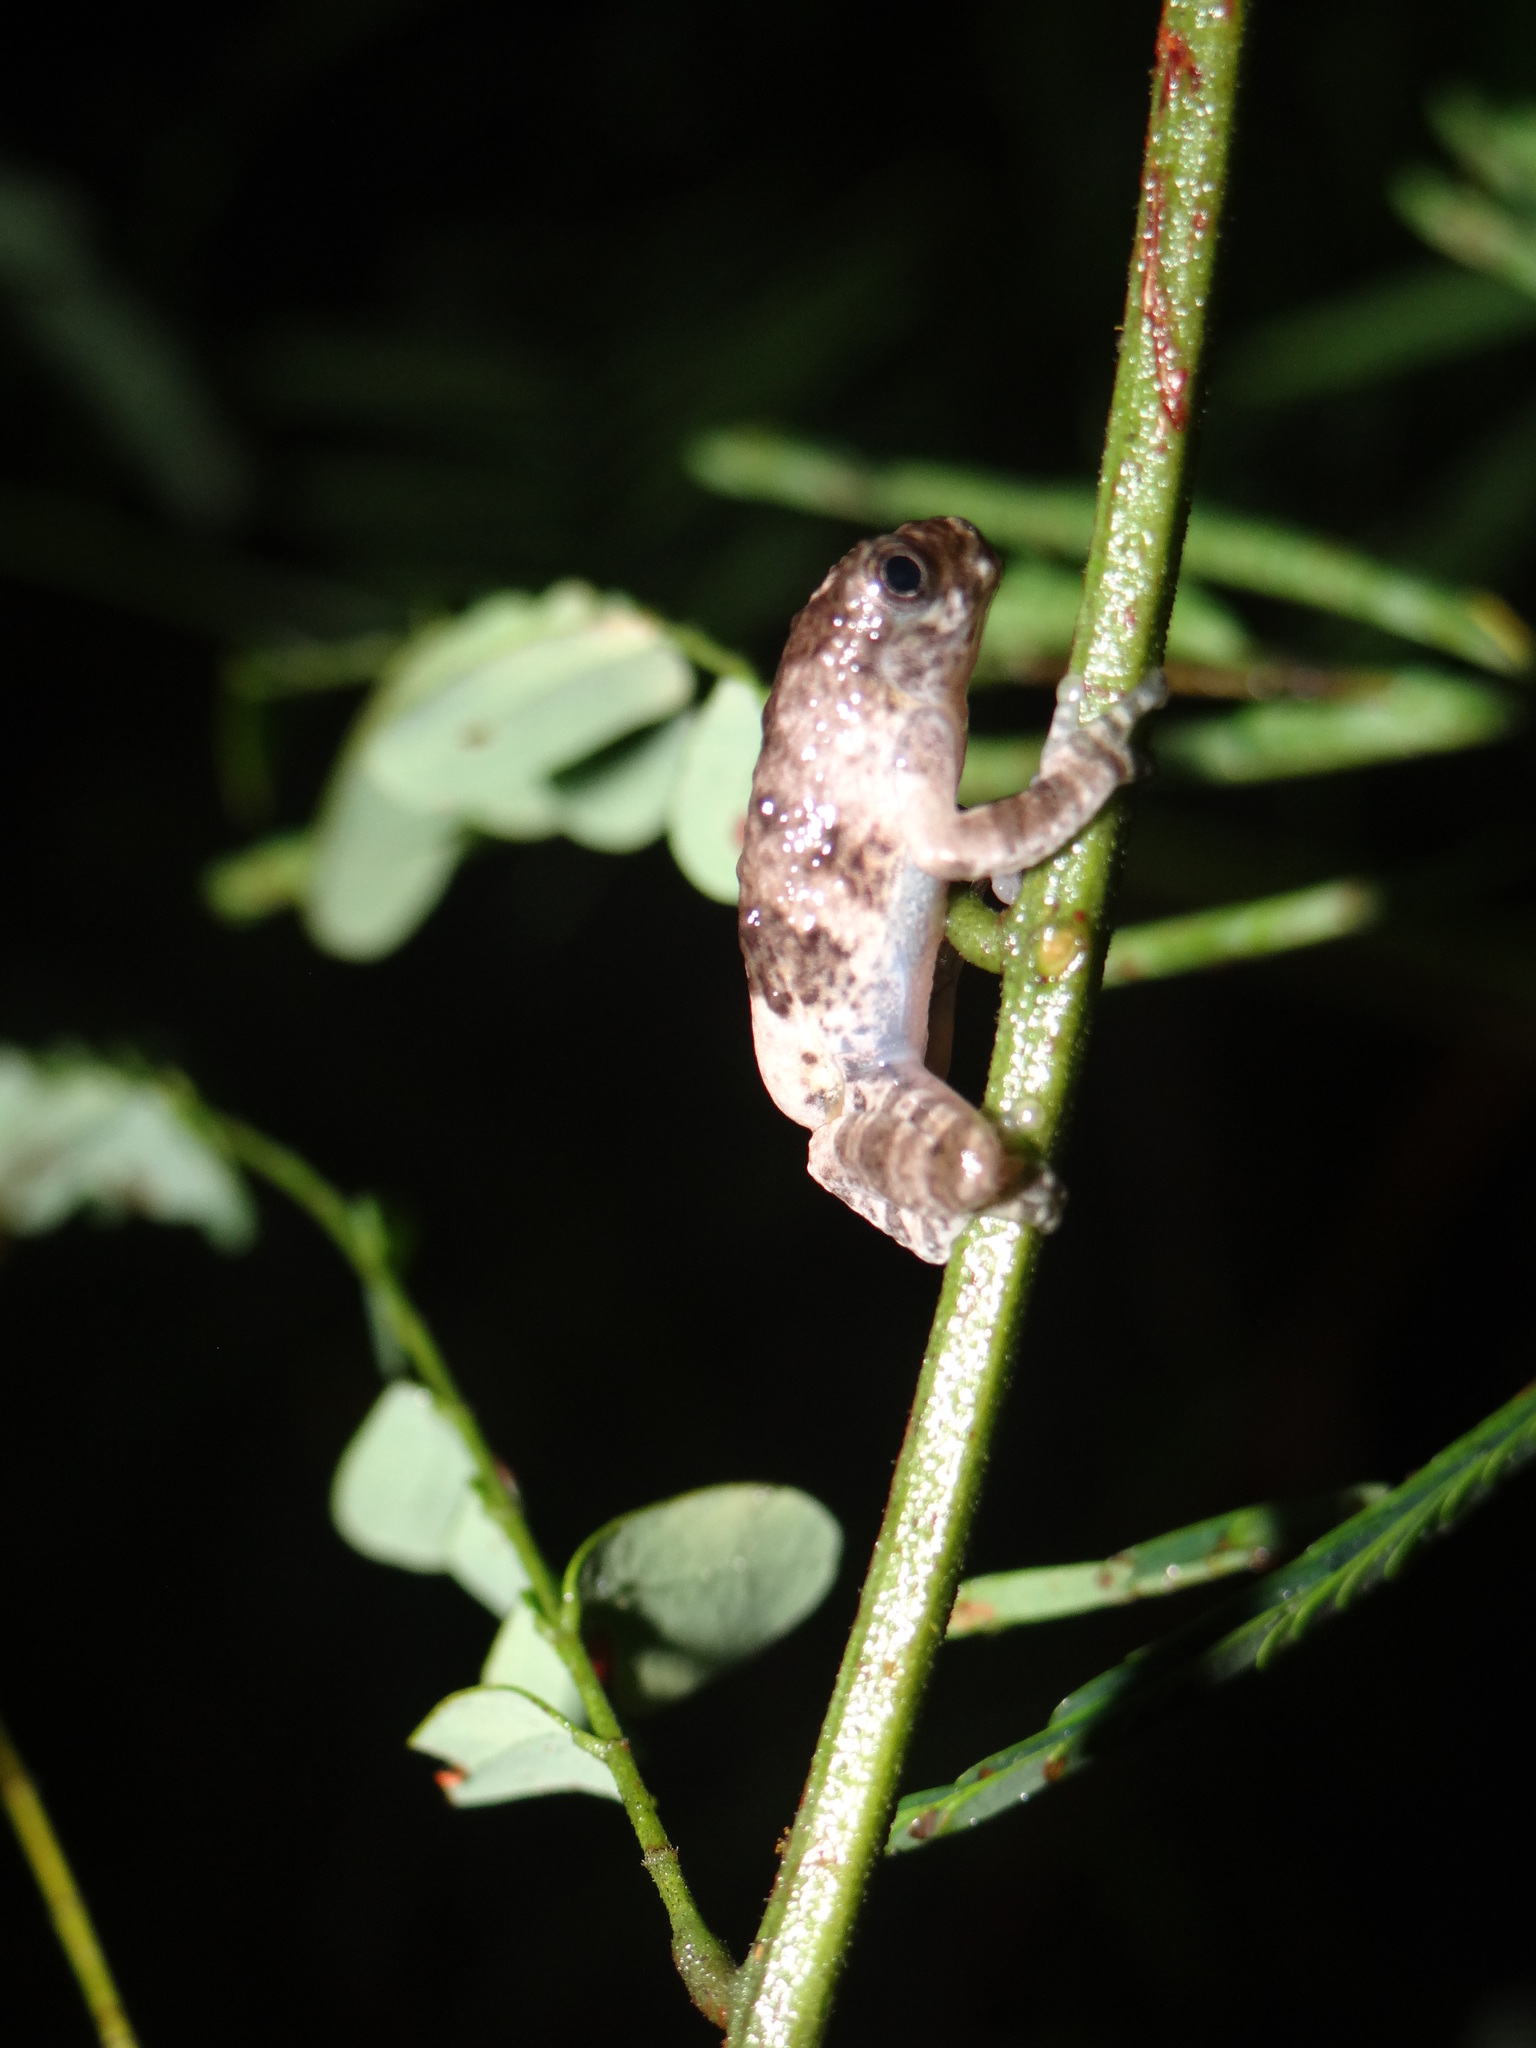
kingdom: Animalia
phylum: Chordata
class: Amphibia
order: Anura
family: Hylidae
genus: Dendropsophus
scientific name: Dendropsophus marmoratus
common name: Marbled treefrog
